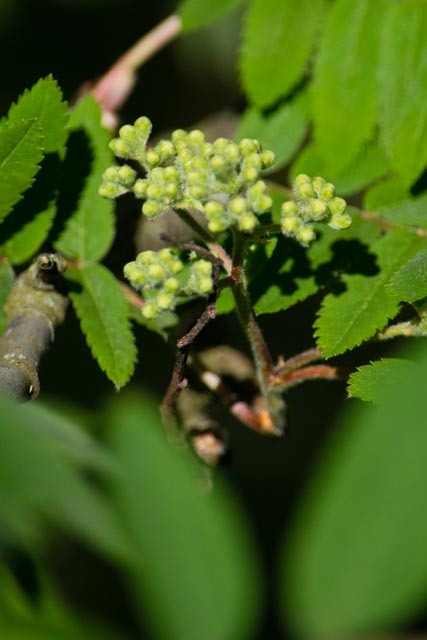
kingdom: Plantae
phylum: Tracheophyta
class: Magnoliopsida
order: Rosales
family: Rosaceae
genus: Sorbus
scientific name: Sorbus aucuparia
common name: Rowan
